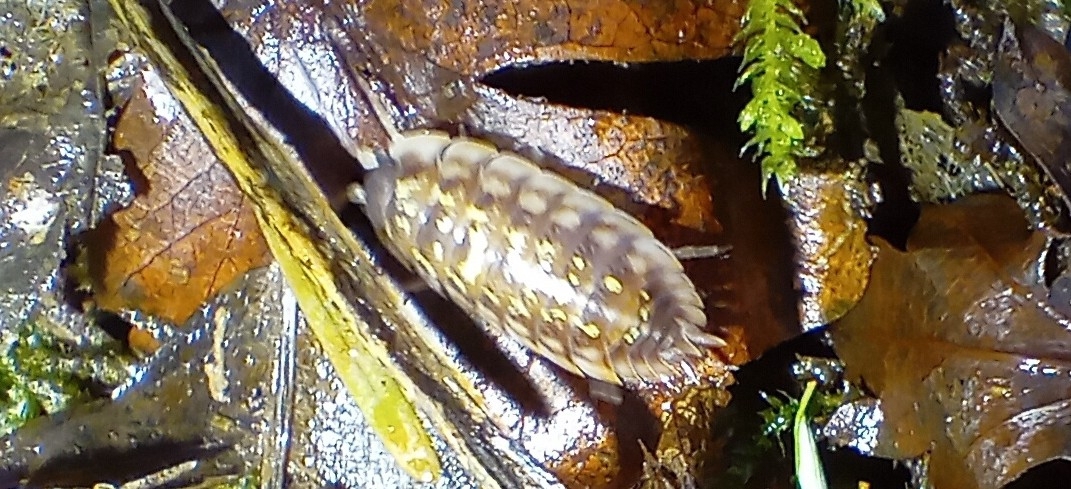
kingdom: Animalia
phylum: Arthropoda
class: Malacostraca
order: Isopoda
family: Oniscidae
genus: Oniscus
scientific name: Oniscus asellus
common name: Common shiny woodlouse
